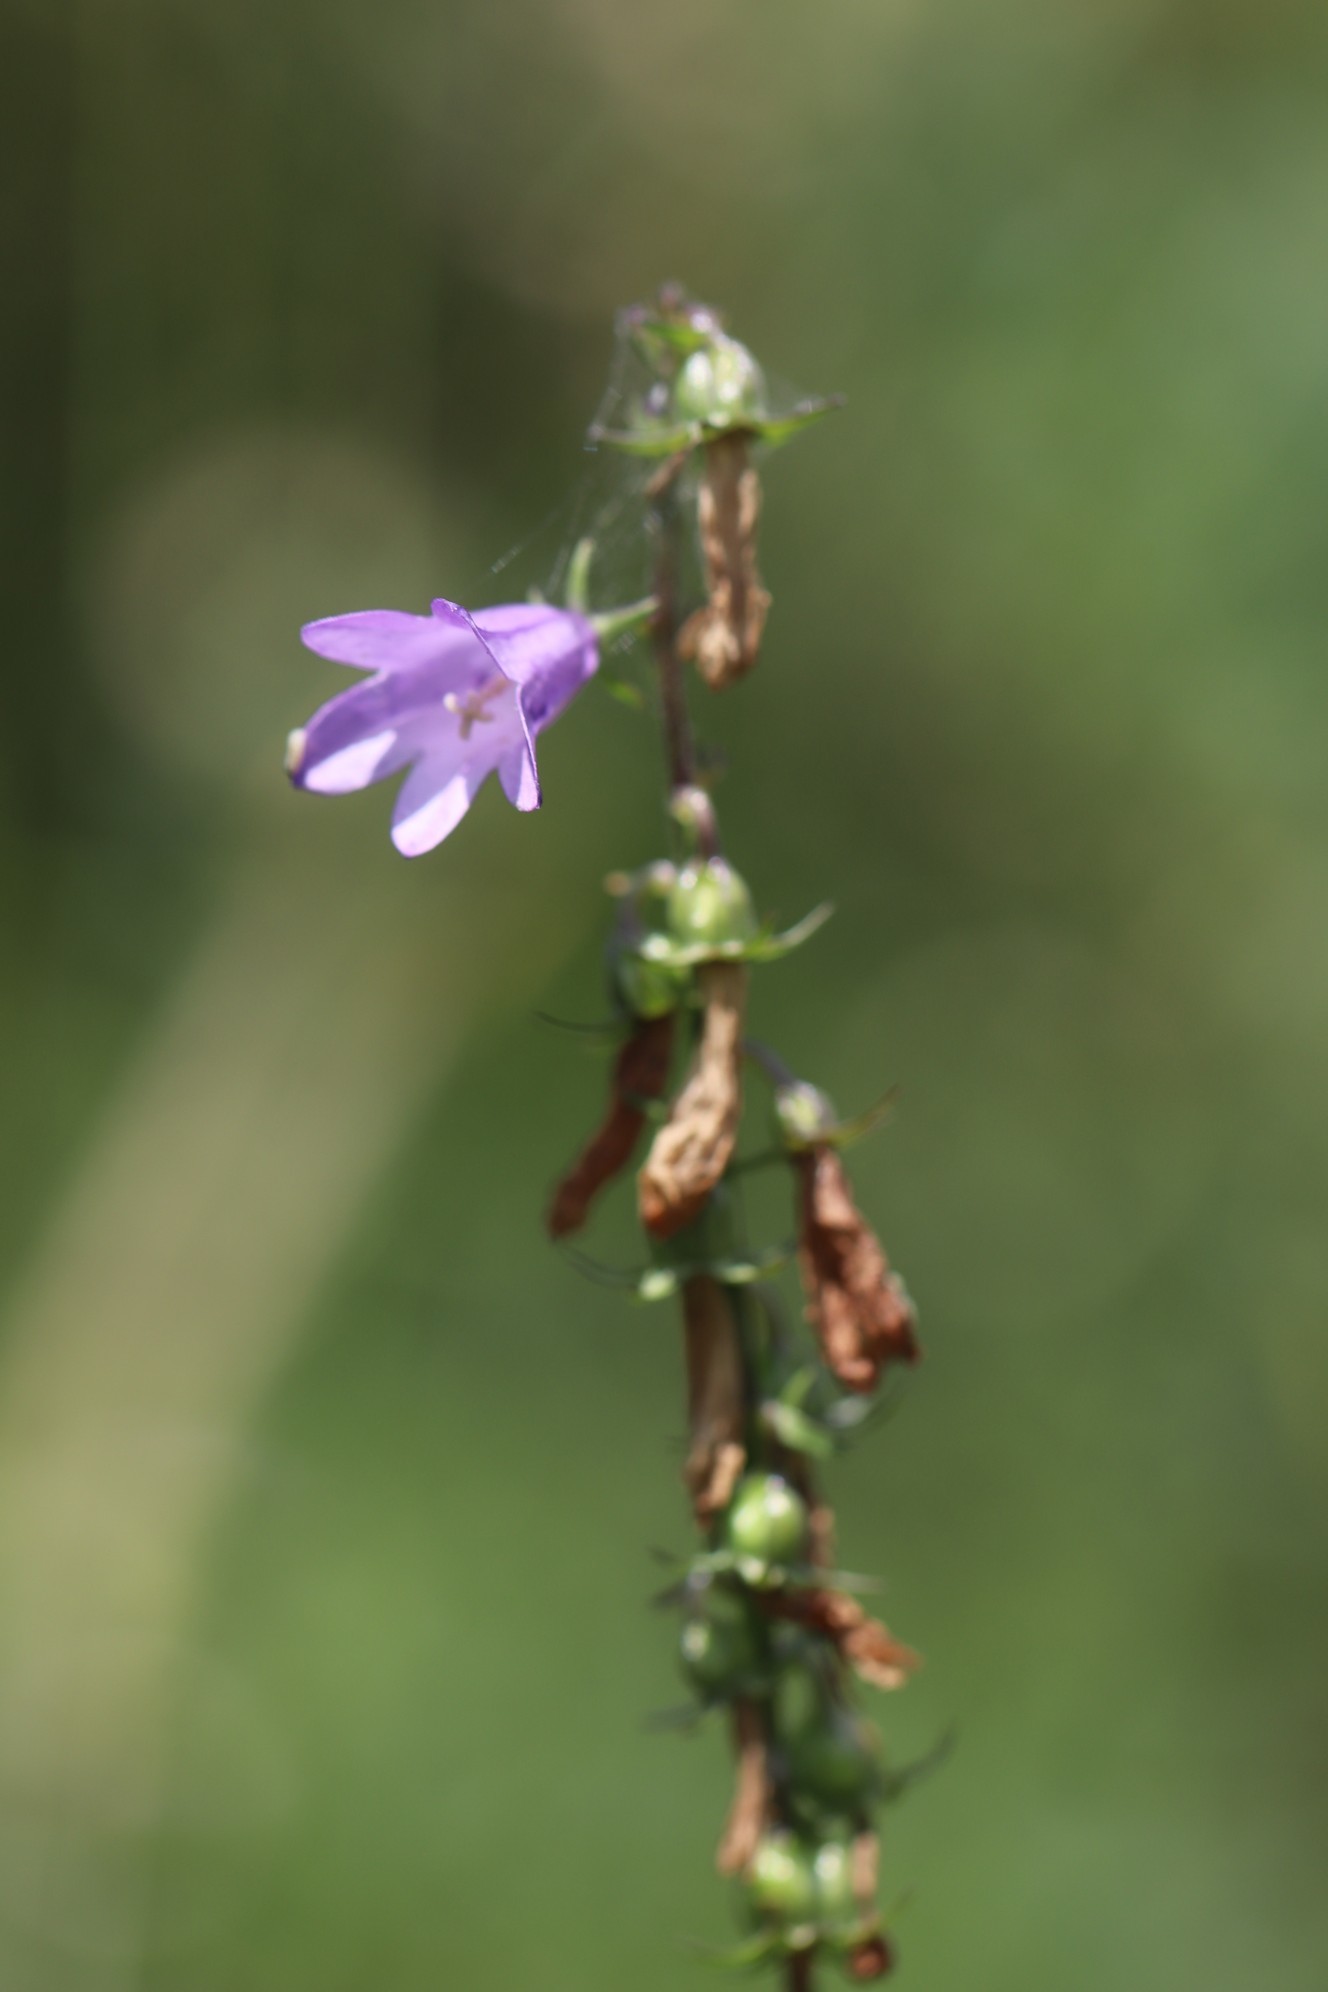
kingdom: Plantae
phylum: Tracheophyta
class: Magnoliopsida
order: Asterales
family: Campanulaceae
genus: Campanula
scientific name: Campanula bononiensis
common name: Pale bellflower
